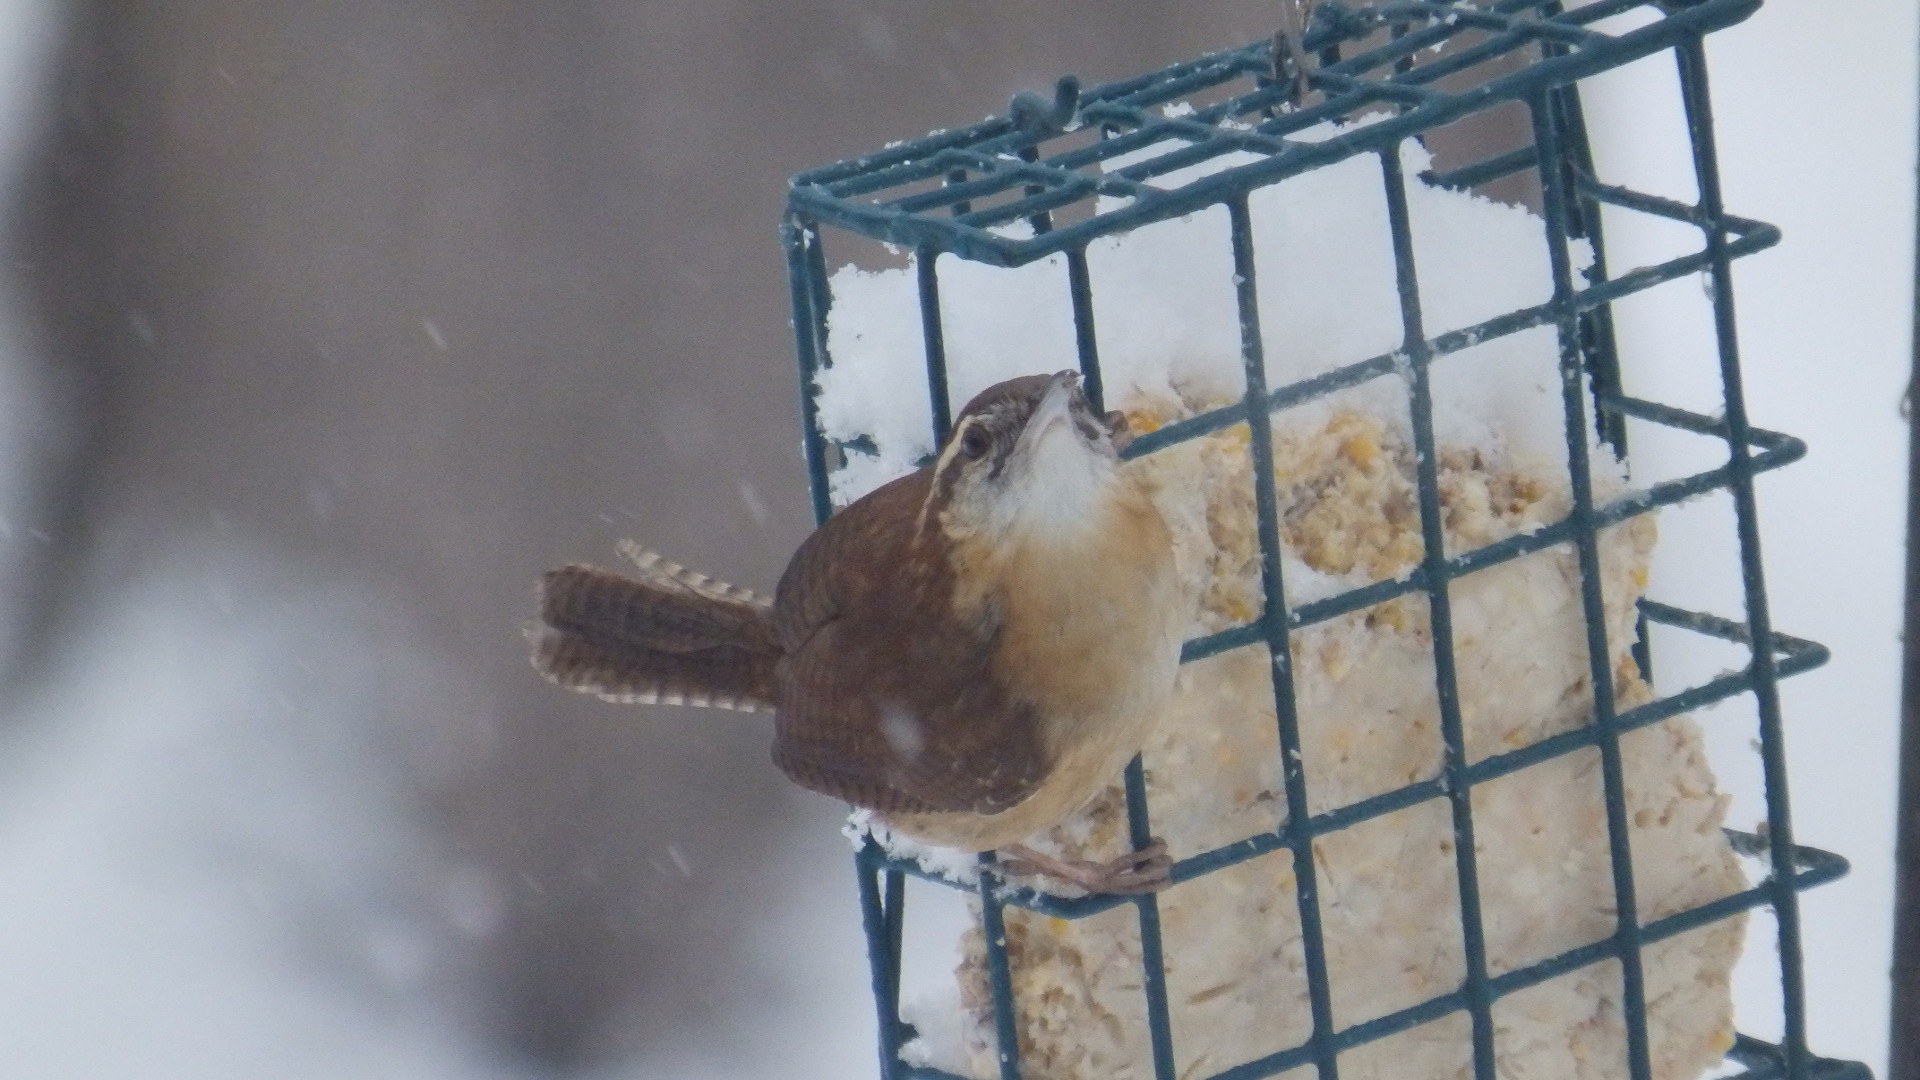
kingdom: Animalia
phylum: Chordata
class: Aves
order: Passeriformes
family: Troglodytidae
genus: Thryothorus
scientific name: Thryothorus ludovicianus
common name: Carolina wren
